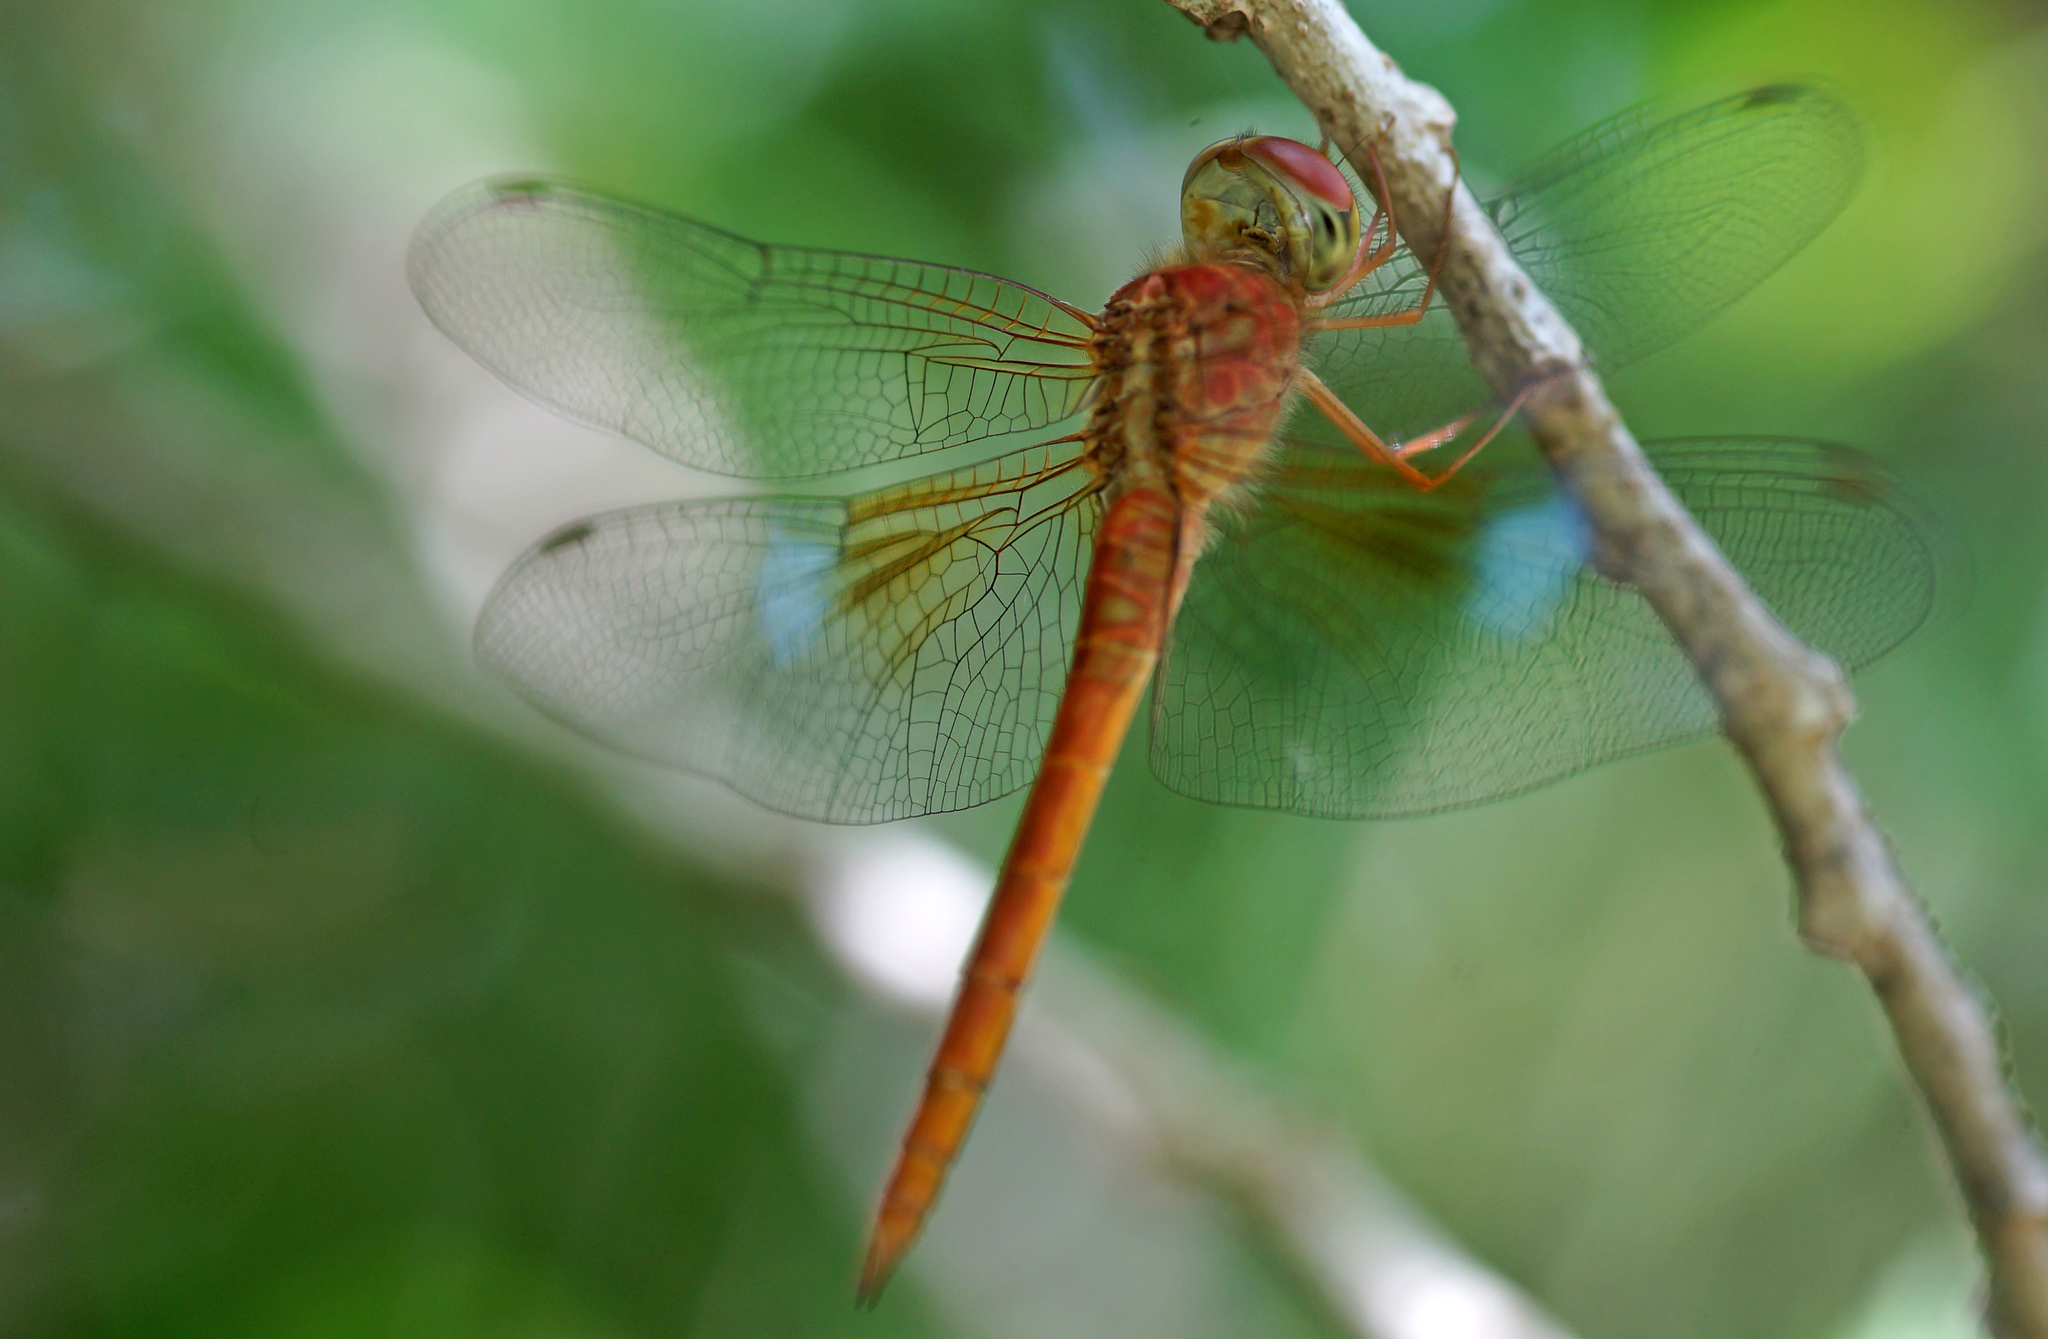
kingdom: Animalia
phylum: Arthropoda
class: Insecta
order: Odonata
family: Libellulidae
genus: Tholymis
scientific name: Tholymis tillarga
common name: Coral-tailed cloud wing
